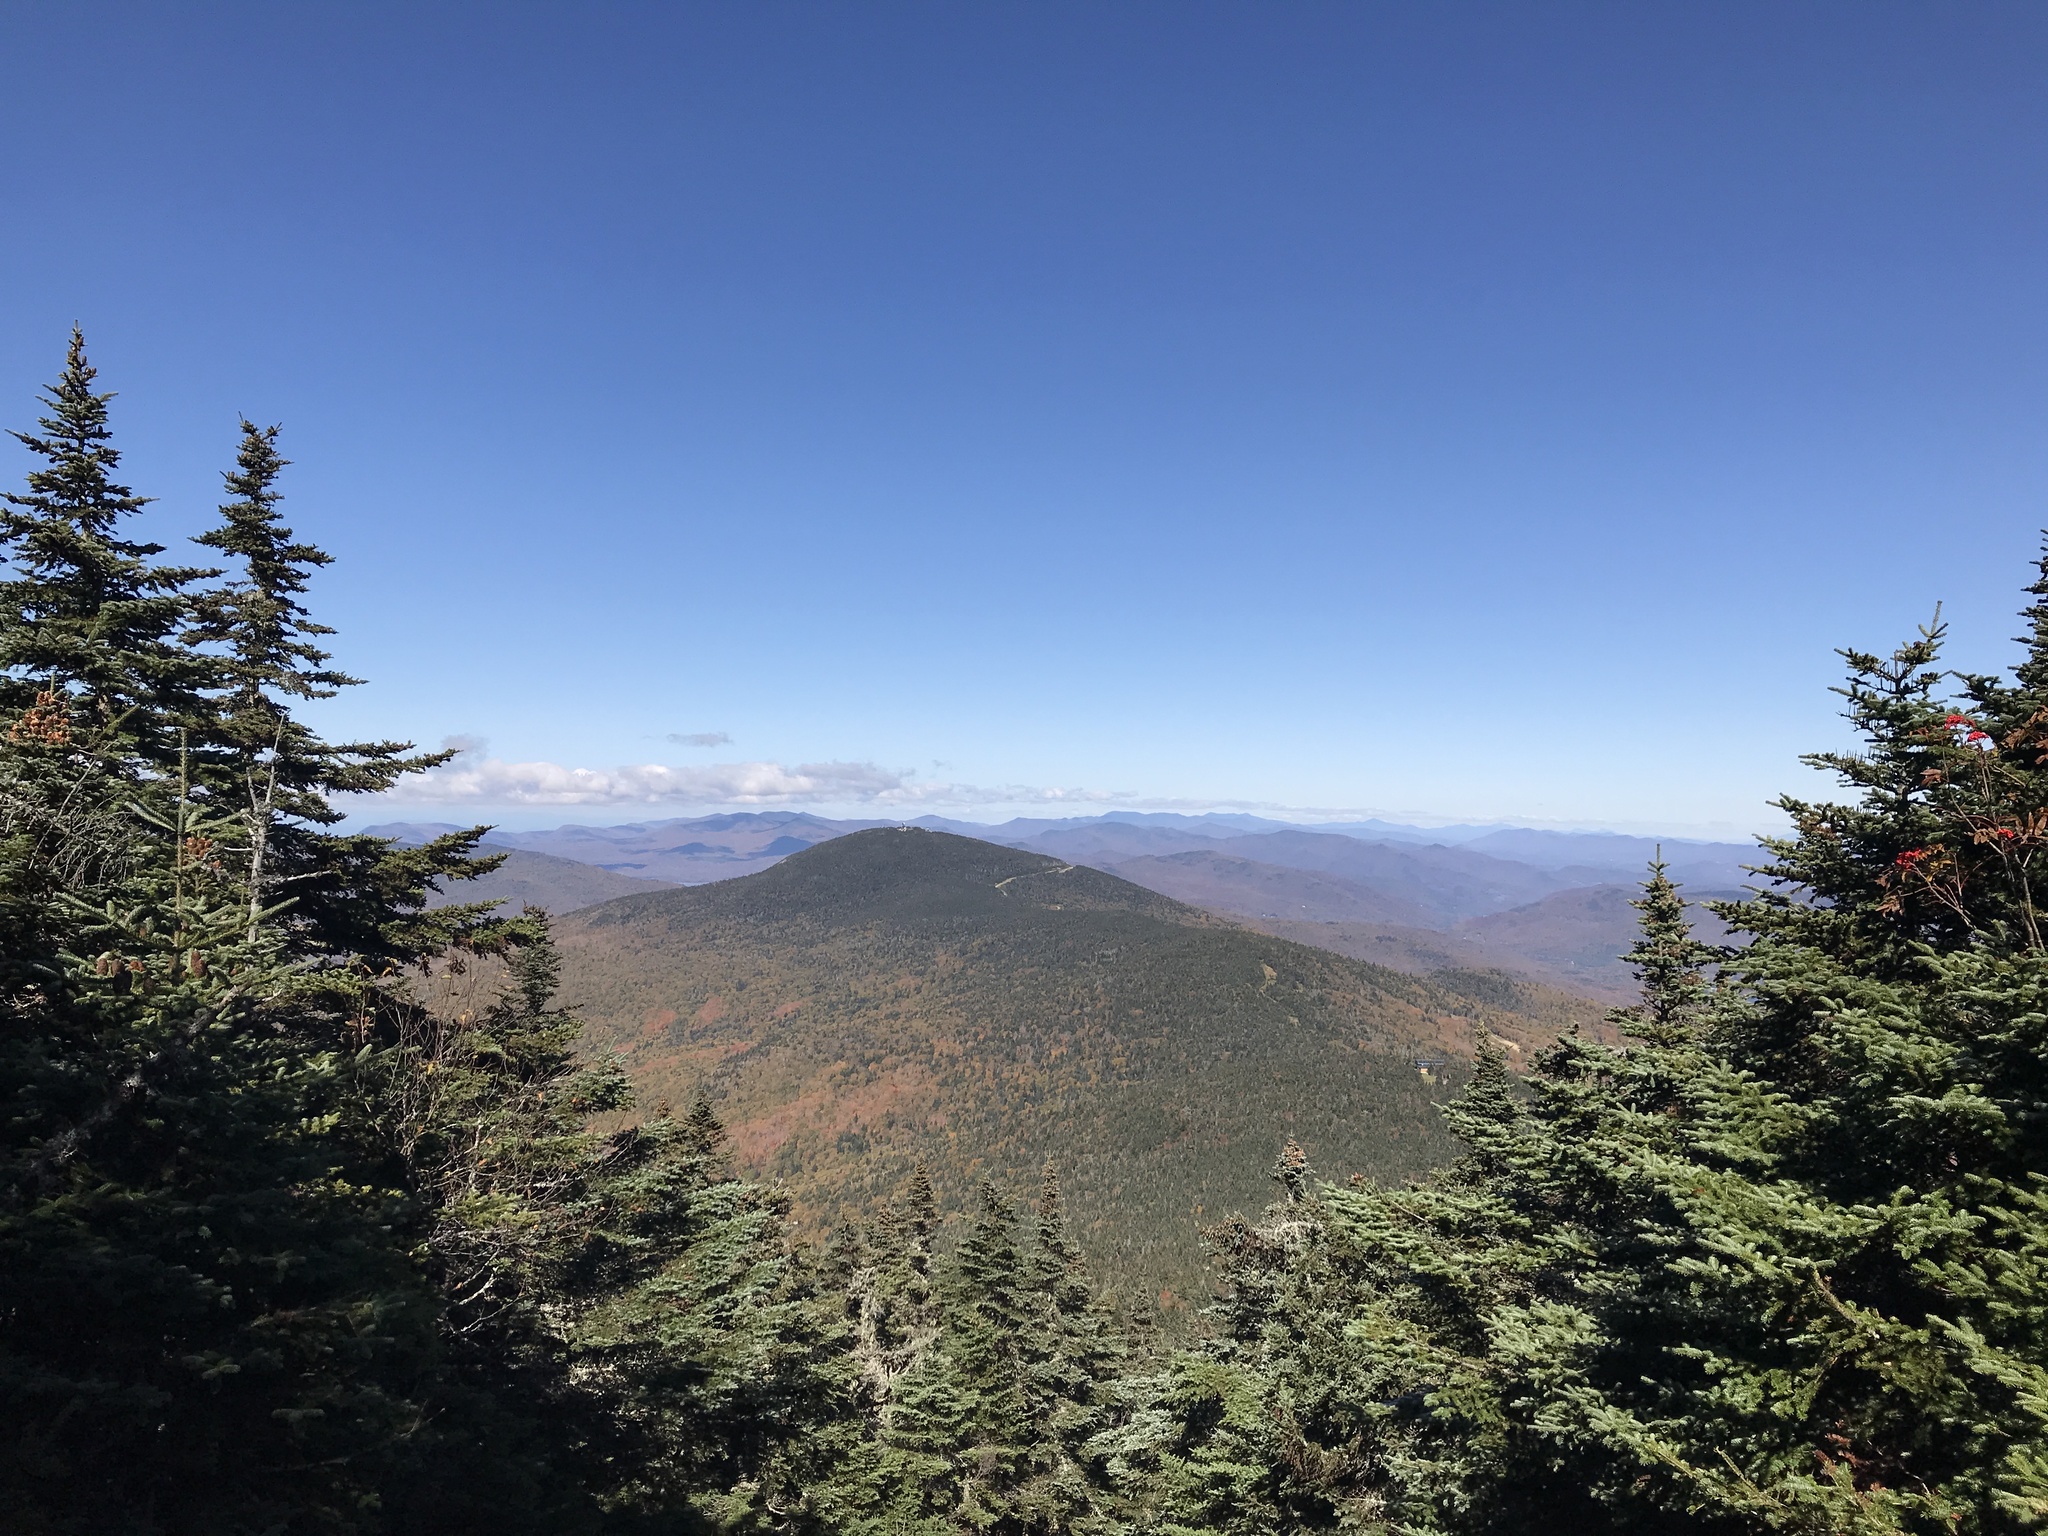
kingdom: Plantae
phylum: Tracheophyta
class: Pinopsida
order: Pinales
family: Pinaceae
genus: Abies
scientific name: Abies balsamea
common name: Balsam fir
